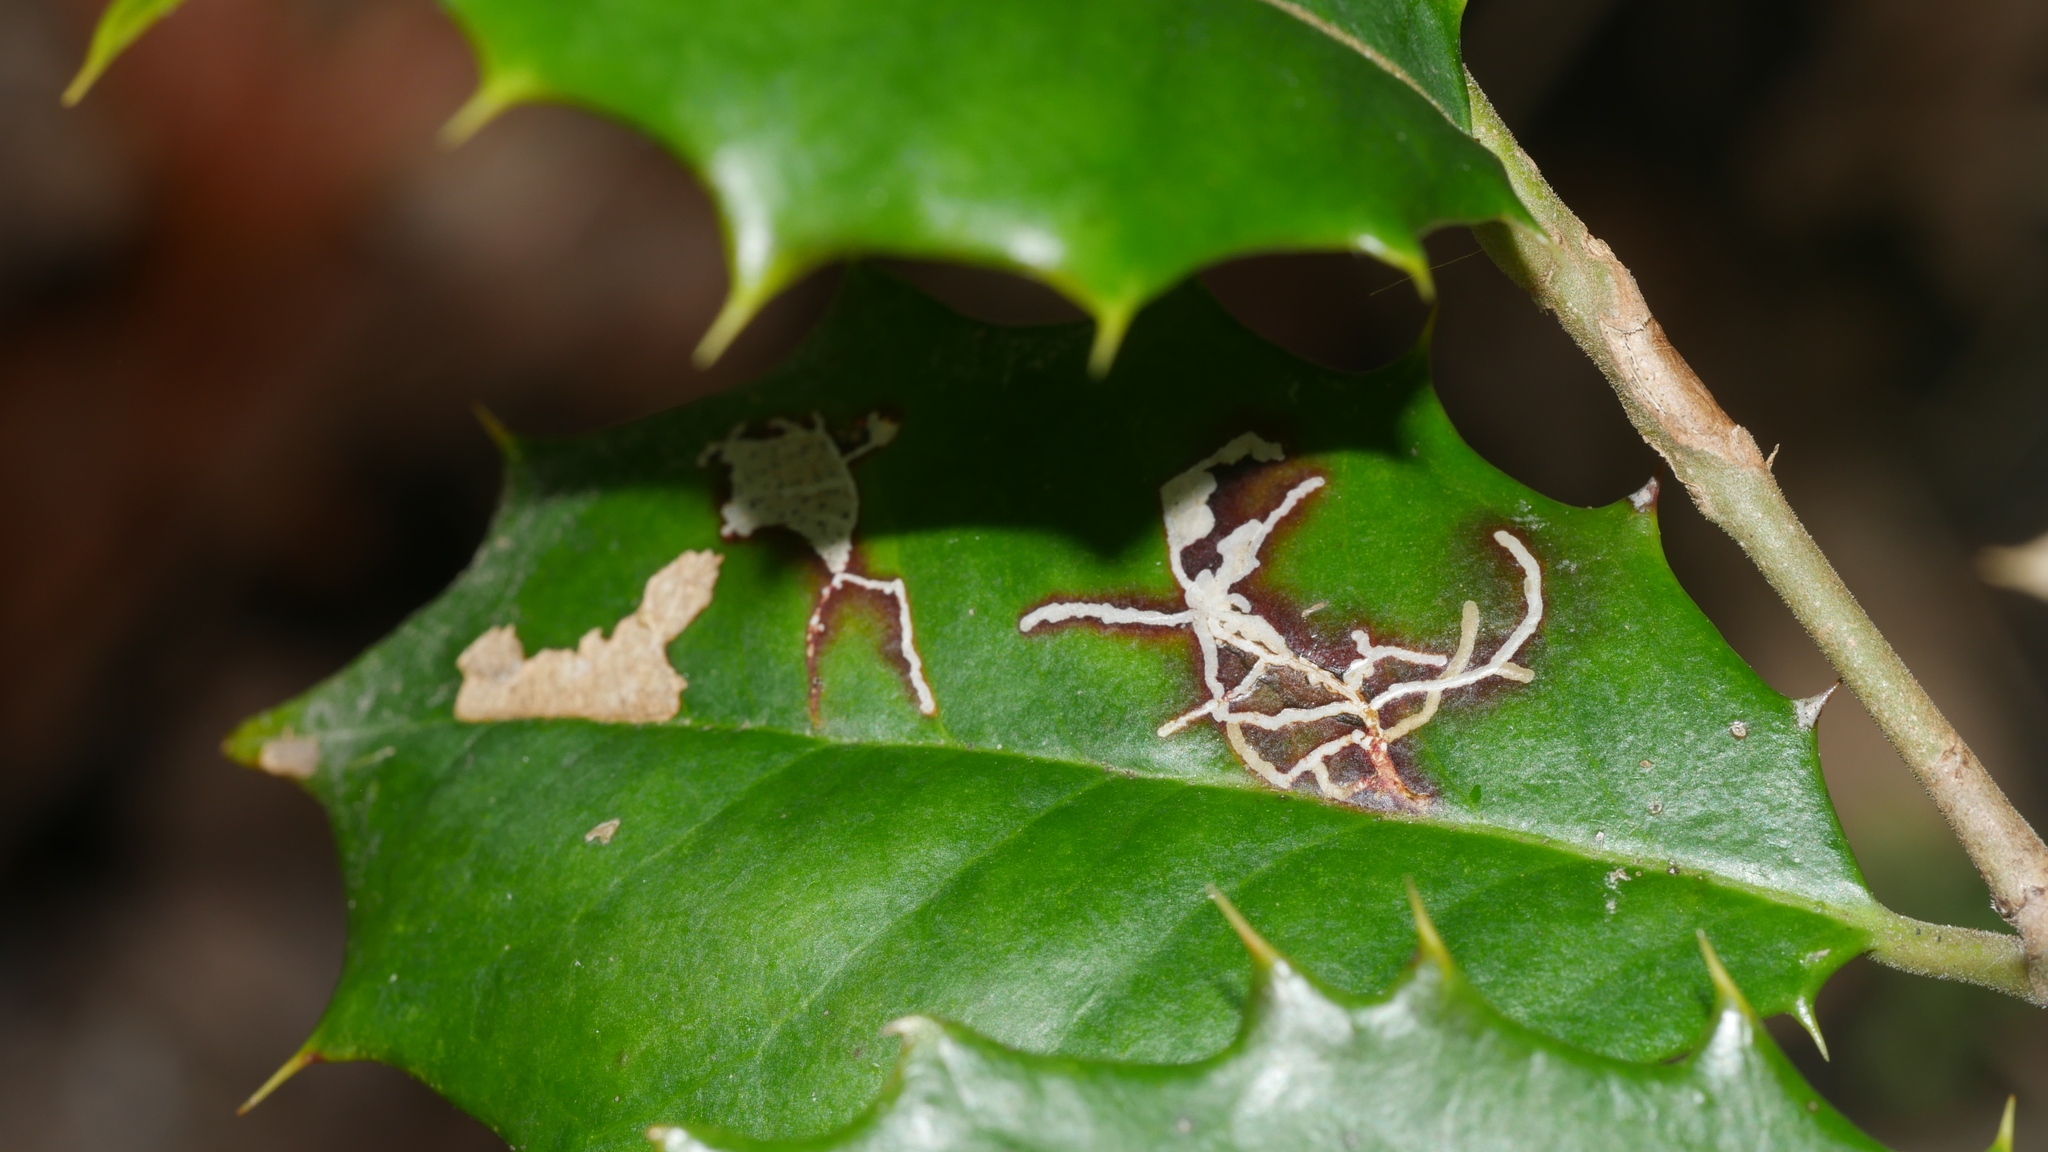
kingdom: Animalia
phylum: Arthropoda
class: Insecta
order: Lepidoptera
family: Tortricidae
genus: Rhopobota
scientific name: Rhopobota
